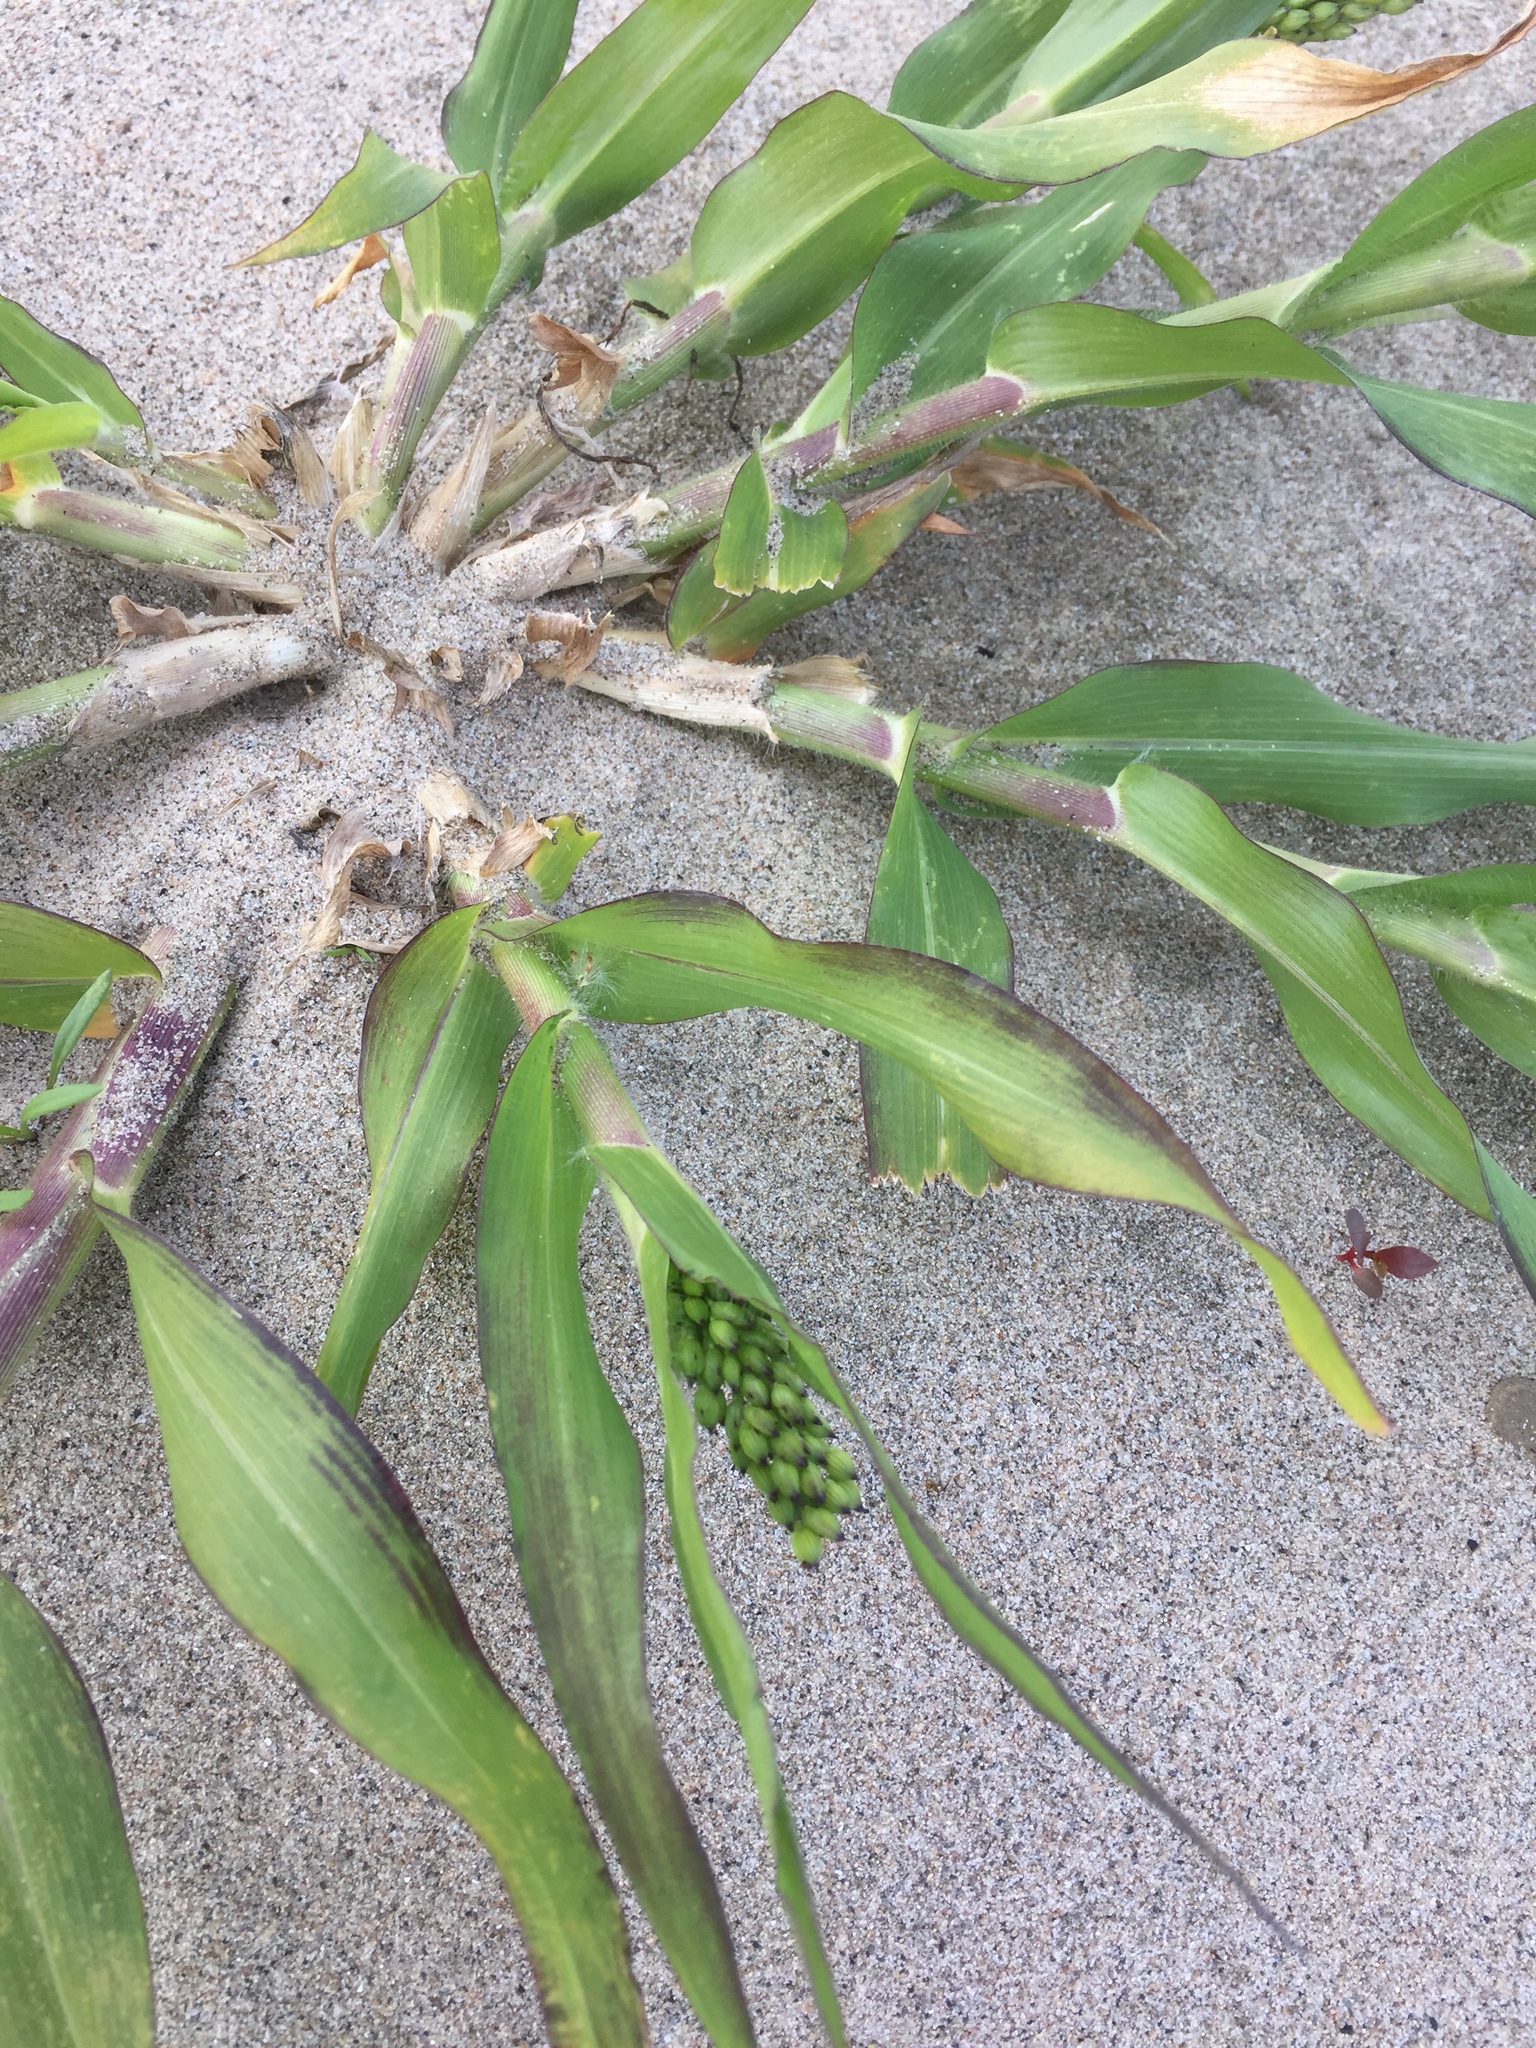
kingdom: Plantae
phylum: Tracheophyta
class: Liliopsida
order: Poales
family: Poaceae
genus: Panicum
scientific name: Panicum miliaceum
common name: Common millet
